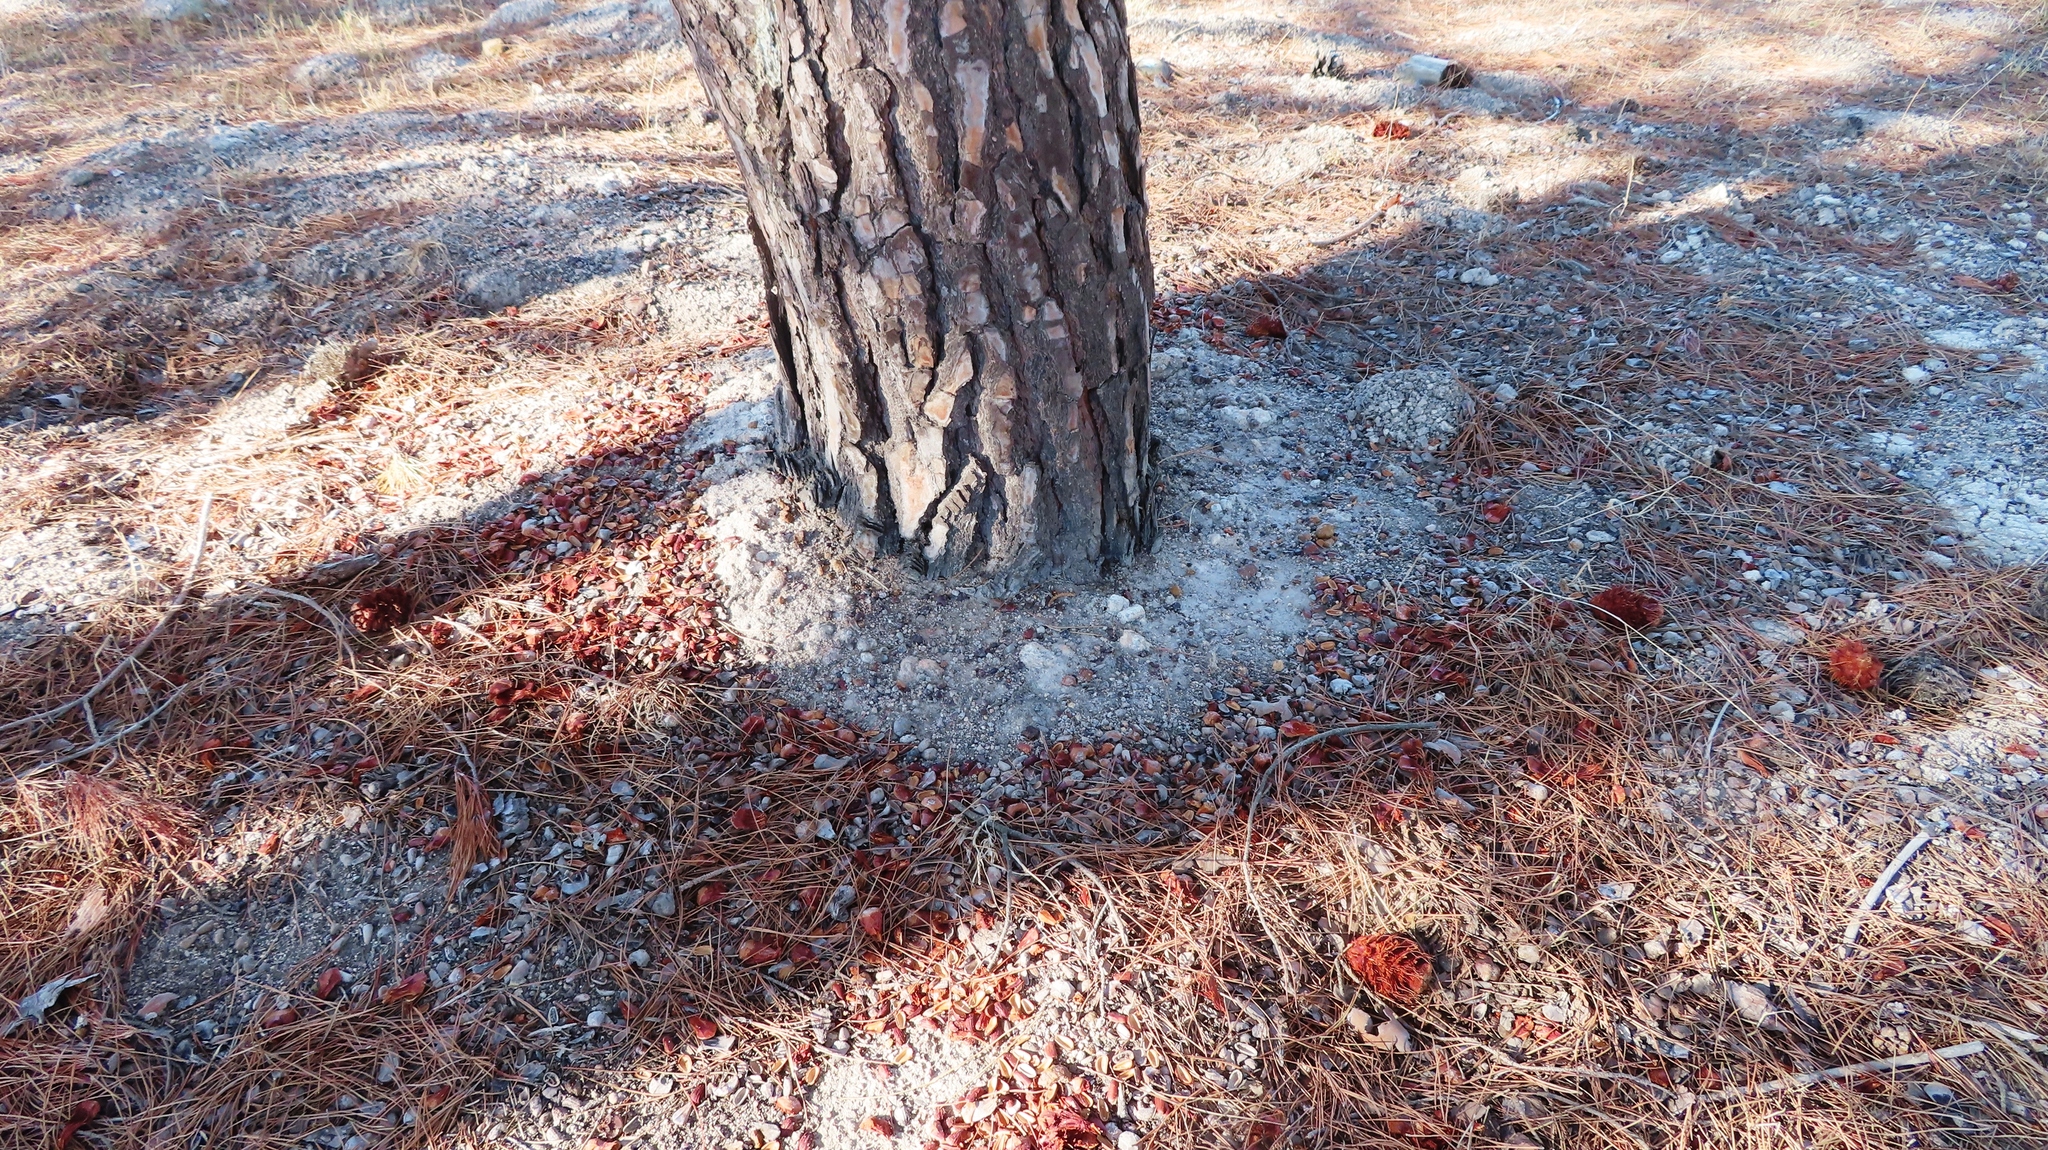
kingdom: Animalia
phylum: Chordata
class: Mammalia
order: Rodentia
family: Sciuridae
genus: Sciurus
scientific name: Sciurus carolinensis
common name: Eastern gray squirrel
